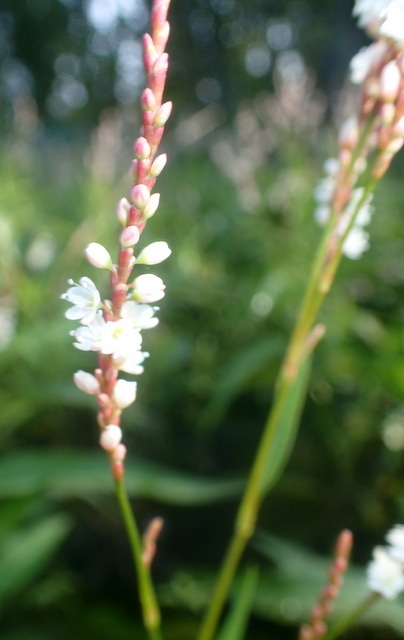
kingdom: Plantae
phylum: Tracheophyta
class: Magnoliopsida
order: Caryophyllales
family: Polygonaceae
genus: Persicaria
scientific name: Persicaria hydropiperoides
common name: Swamp smartweed
